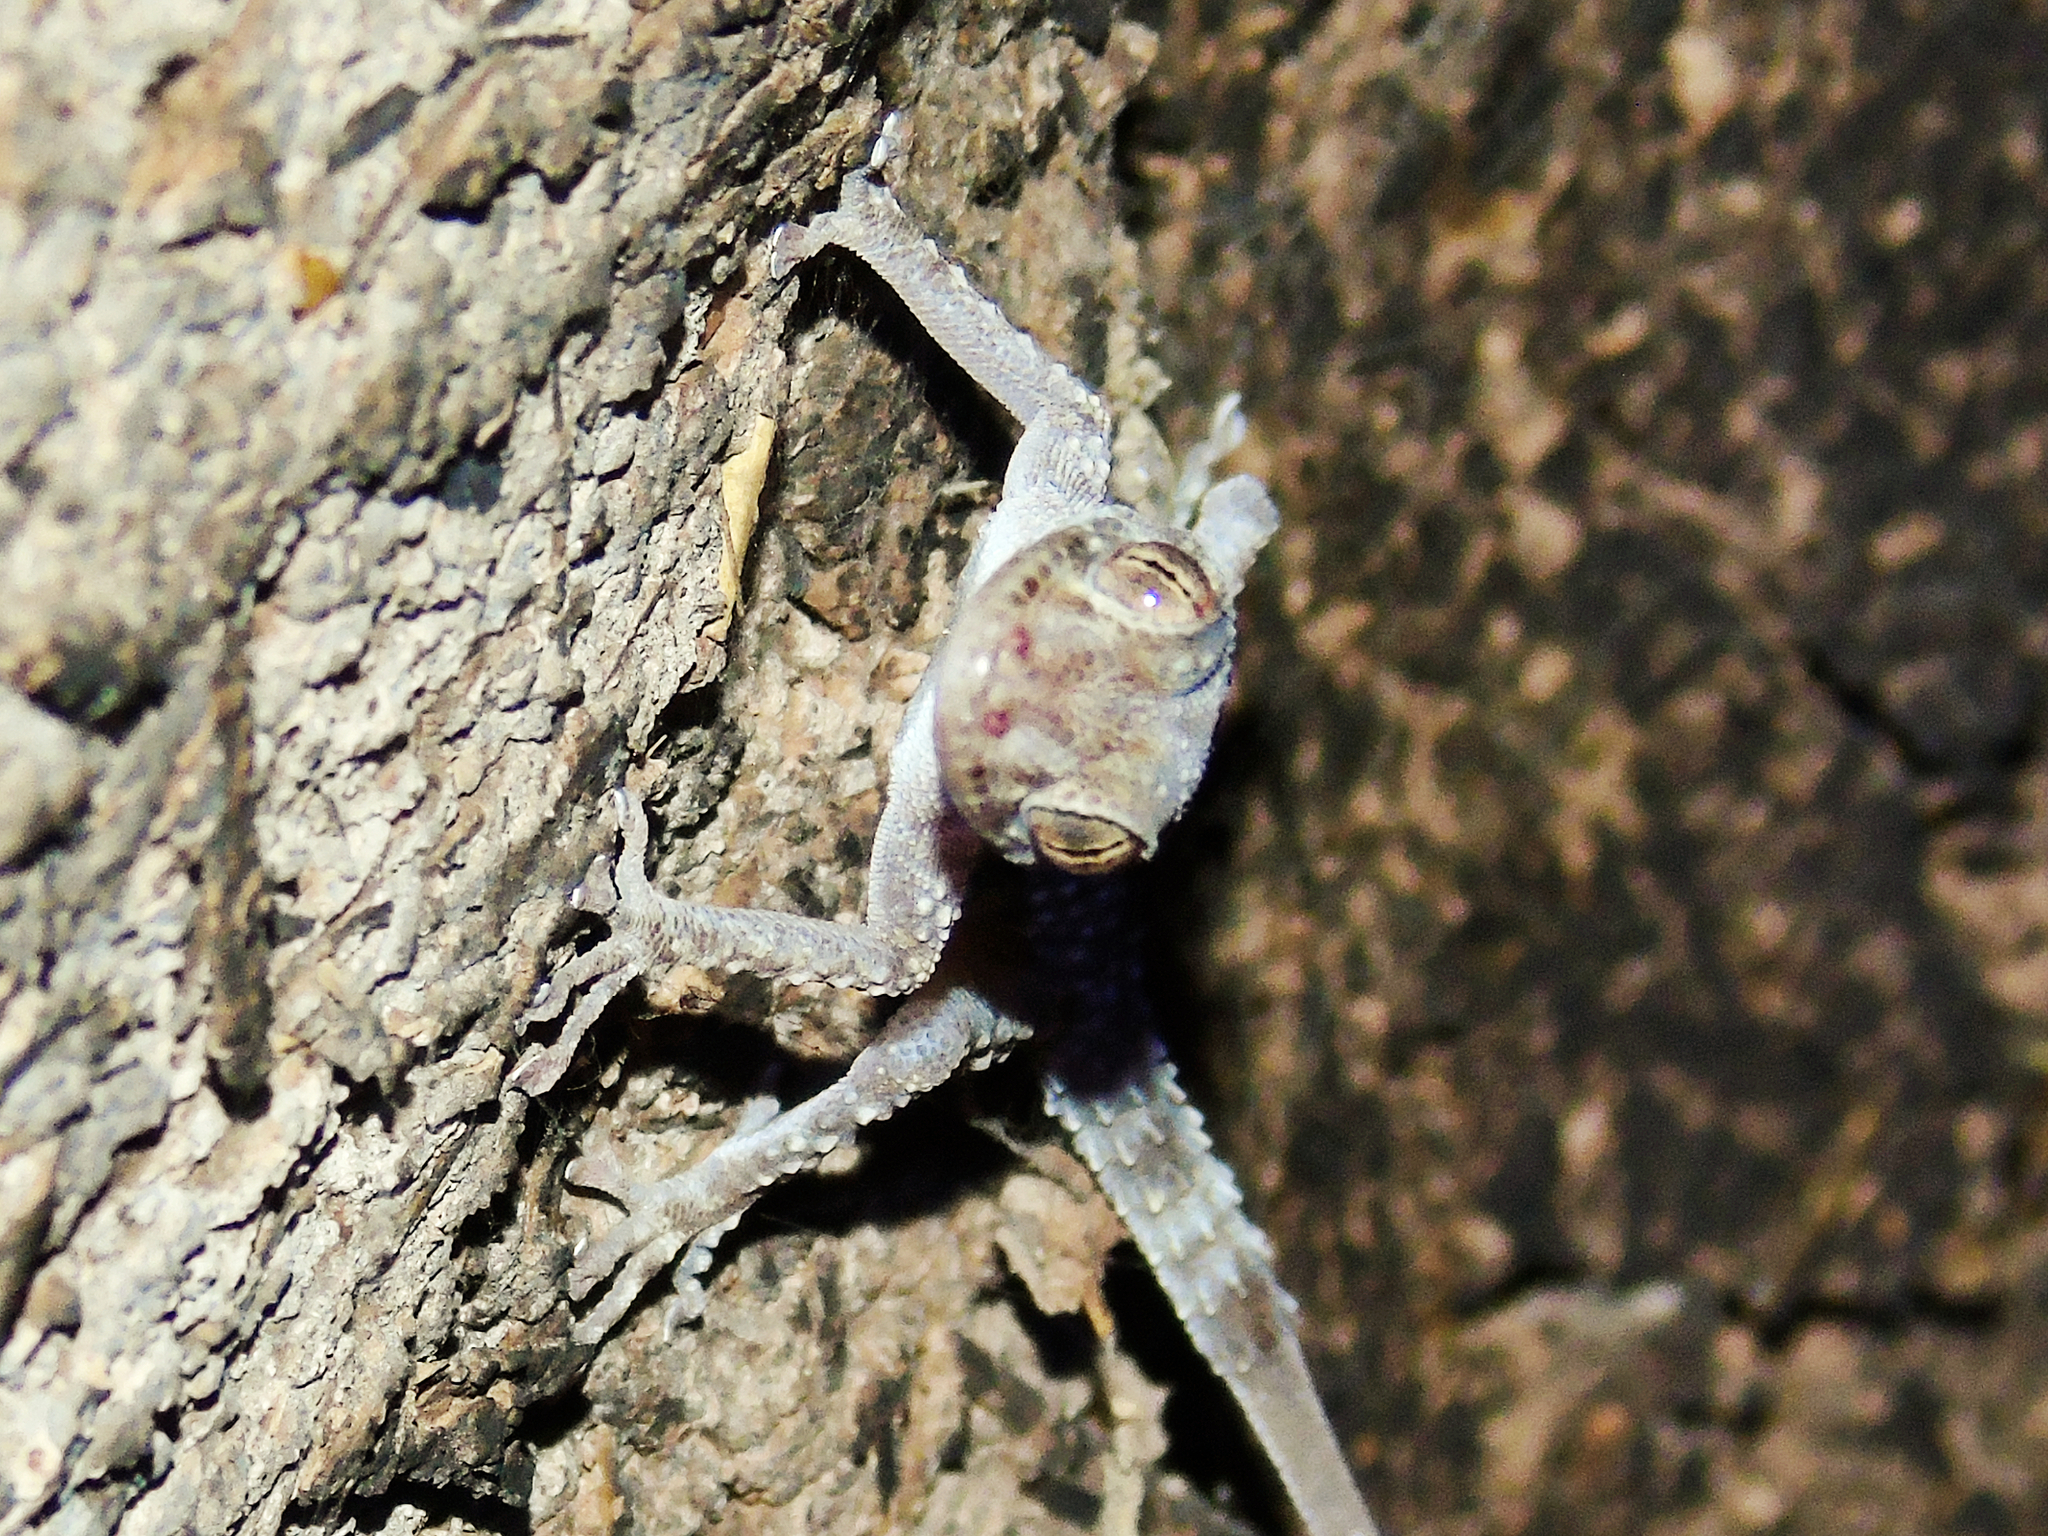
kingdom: Animalia
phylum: Chordata
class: Squamata
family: Phyllodactylidae
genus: Asaccus
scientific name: Asaccus barani
